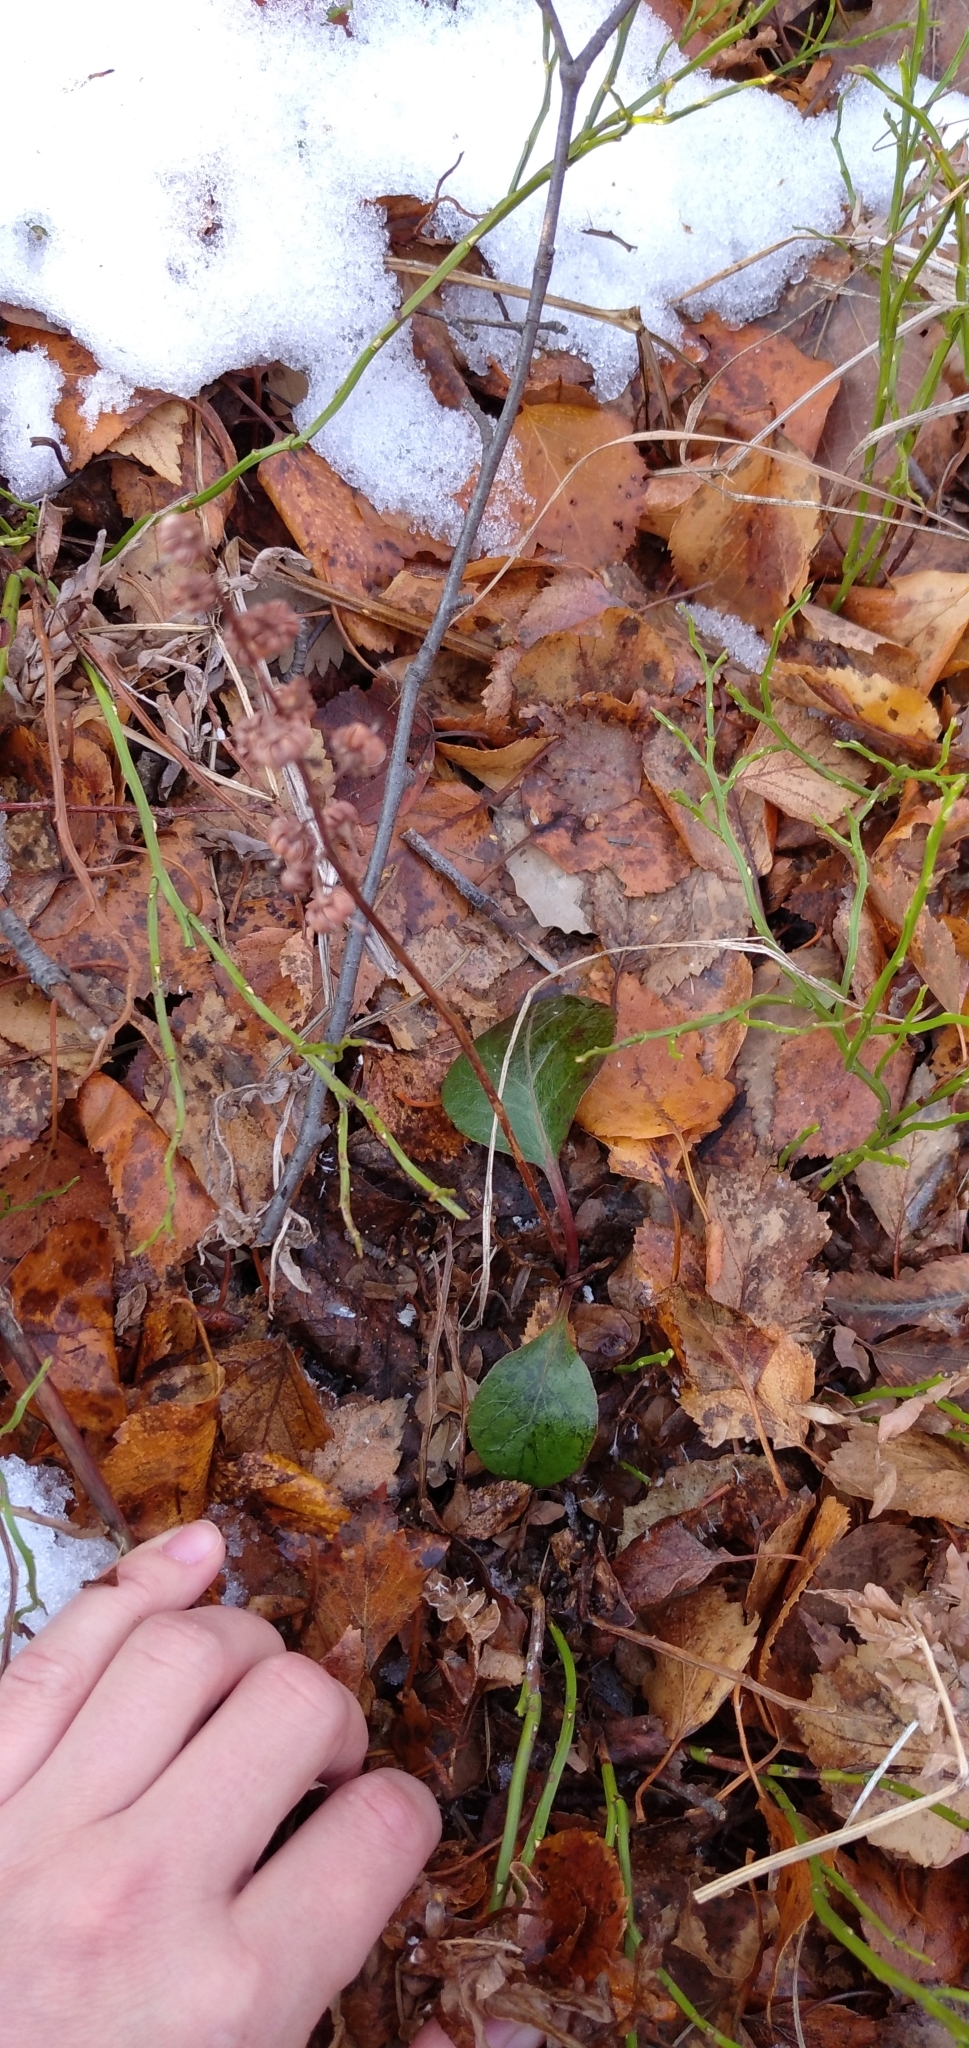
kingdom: Plantae
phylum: Tracheophyta
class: Magnoliopsida
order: Ericales
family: Ericaceae
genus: Pyrola
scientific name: Pyrola rotundifolia
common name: Round-leaved wintergreen
